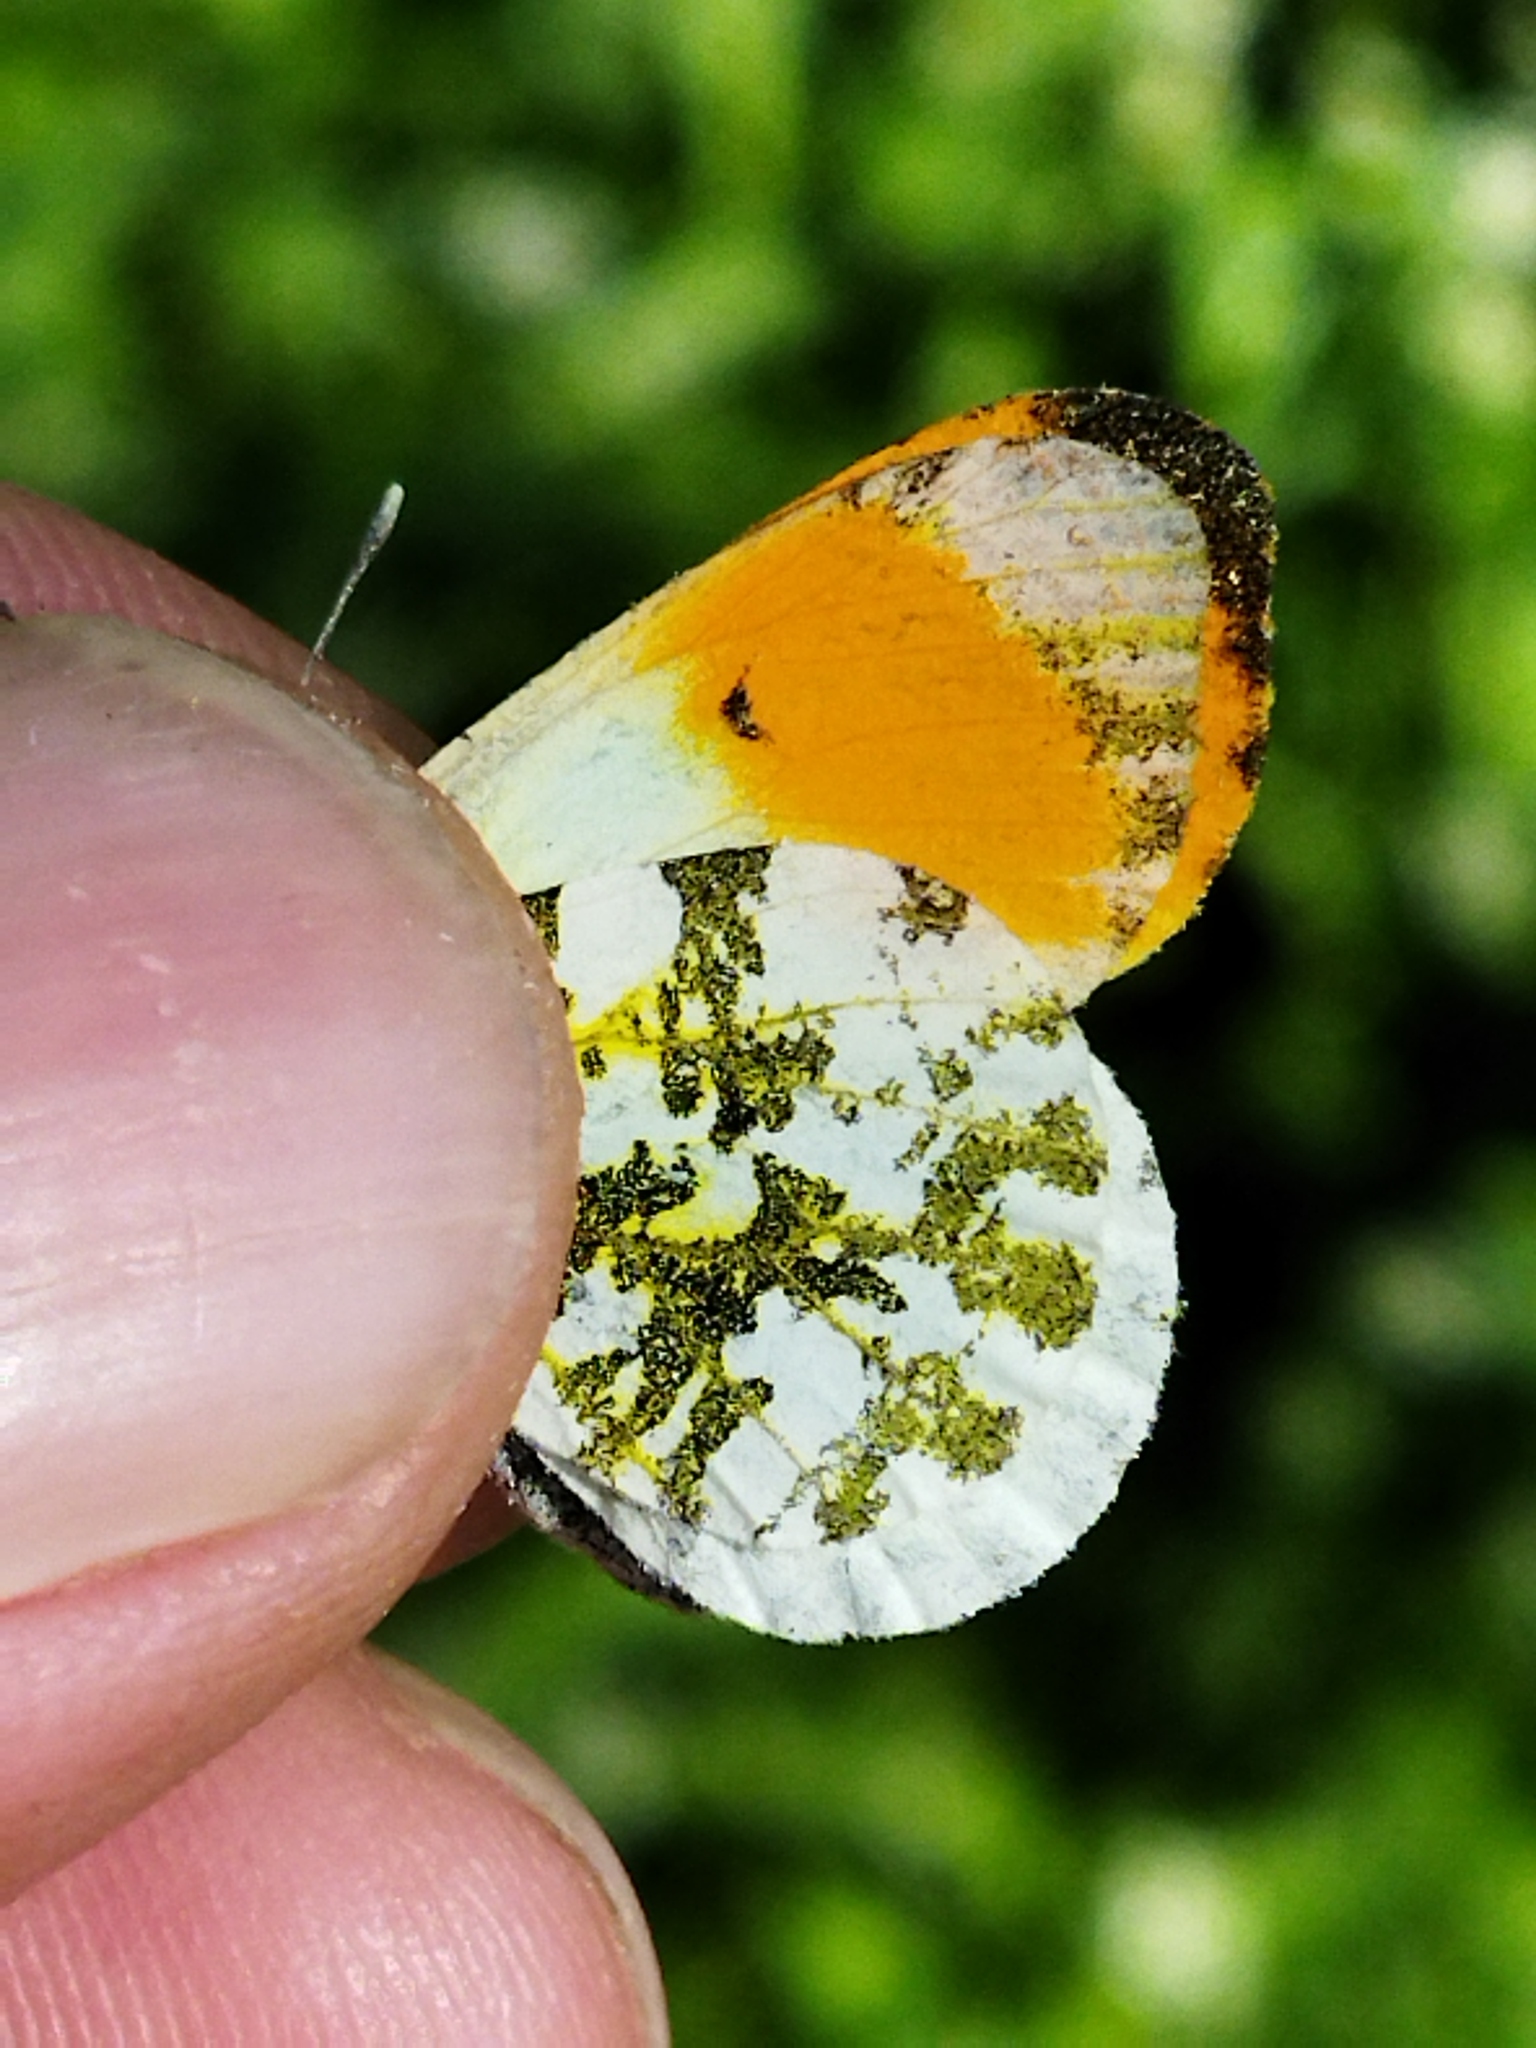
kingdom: Animalia
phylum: Arthropoda
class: Insecta
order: Lepidoptera
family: Pieridae
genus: Anthocharis
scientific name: Anthocharis cardamines
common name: Orange-tip
